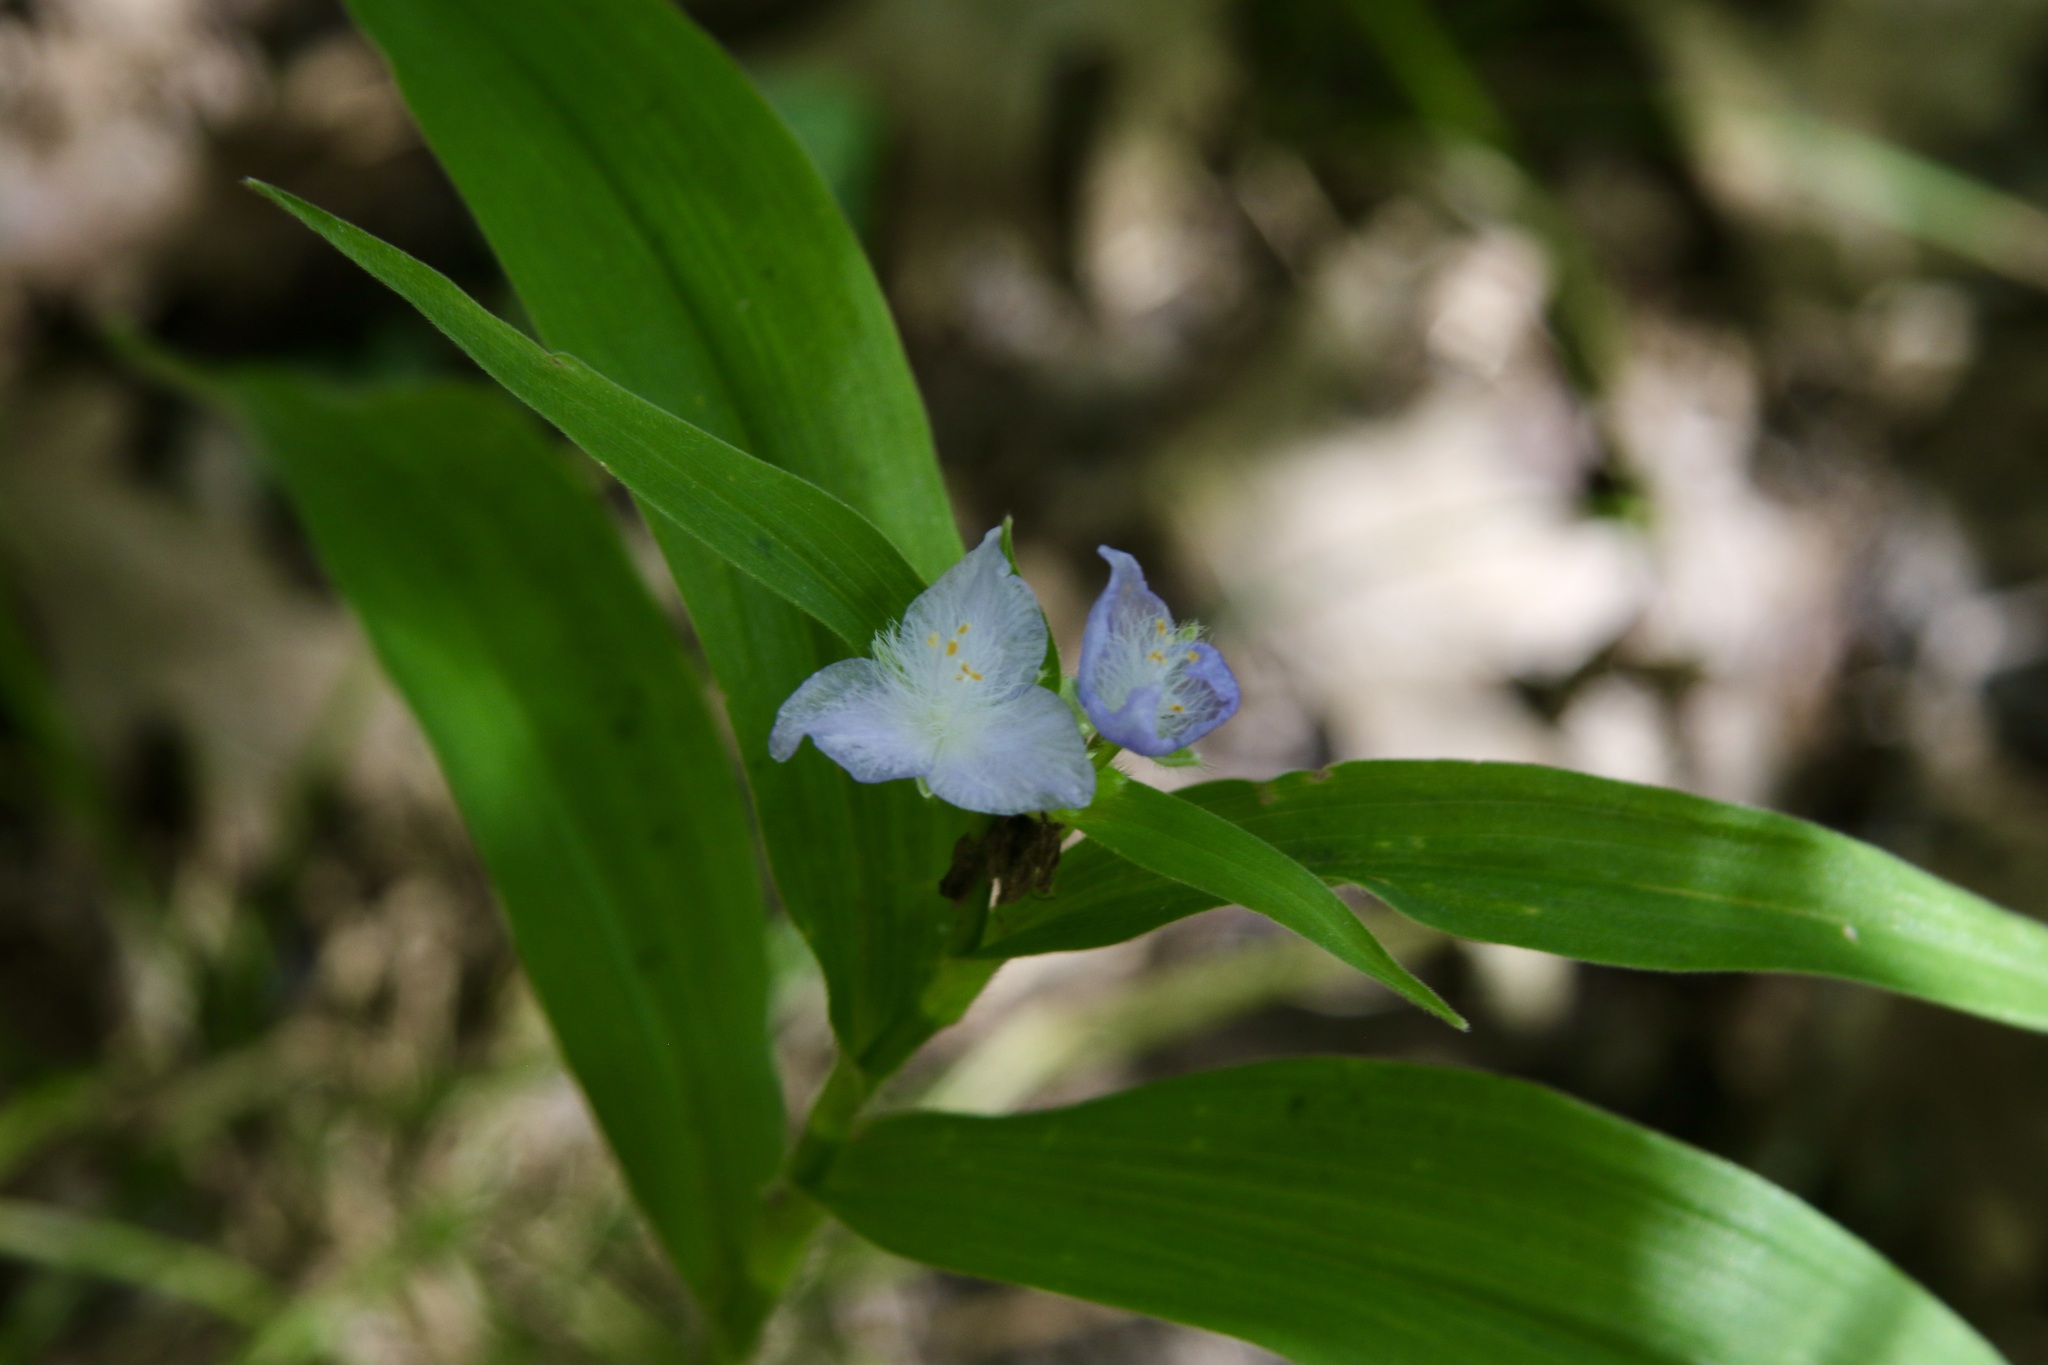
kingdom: Plantae
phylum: Tracheophyta
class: Liliopsida
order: Commelinales
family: Commelinaceae
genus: Tradescantia
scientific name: Tradescantia subaspera
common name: Wide-leaf spiderwort
